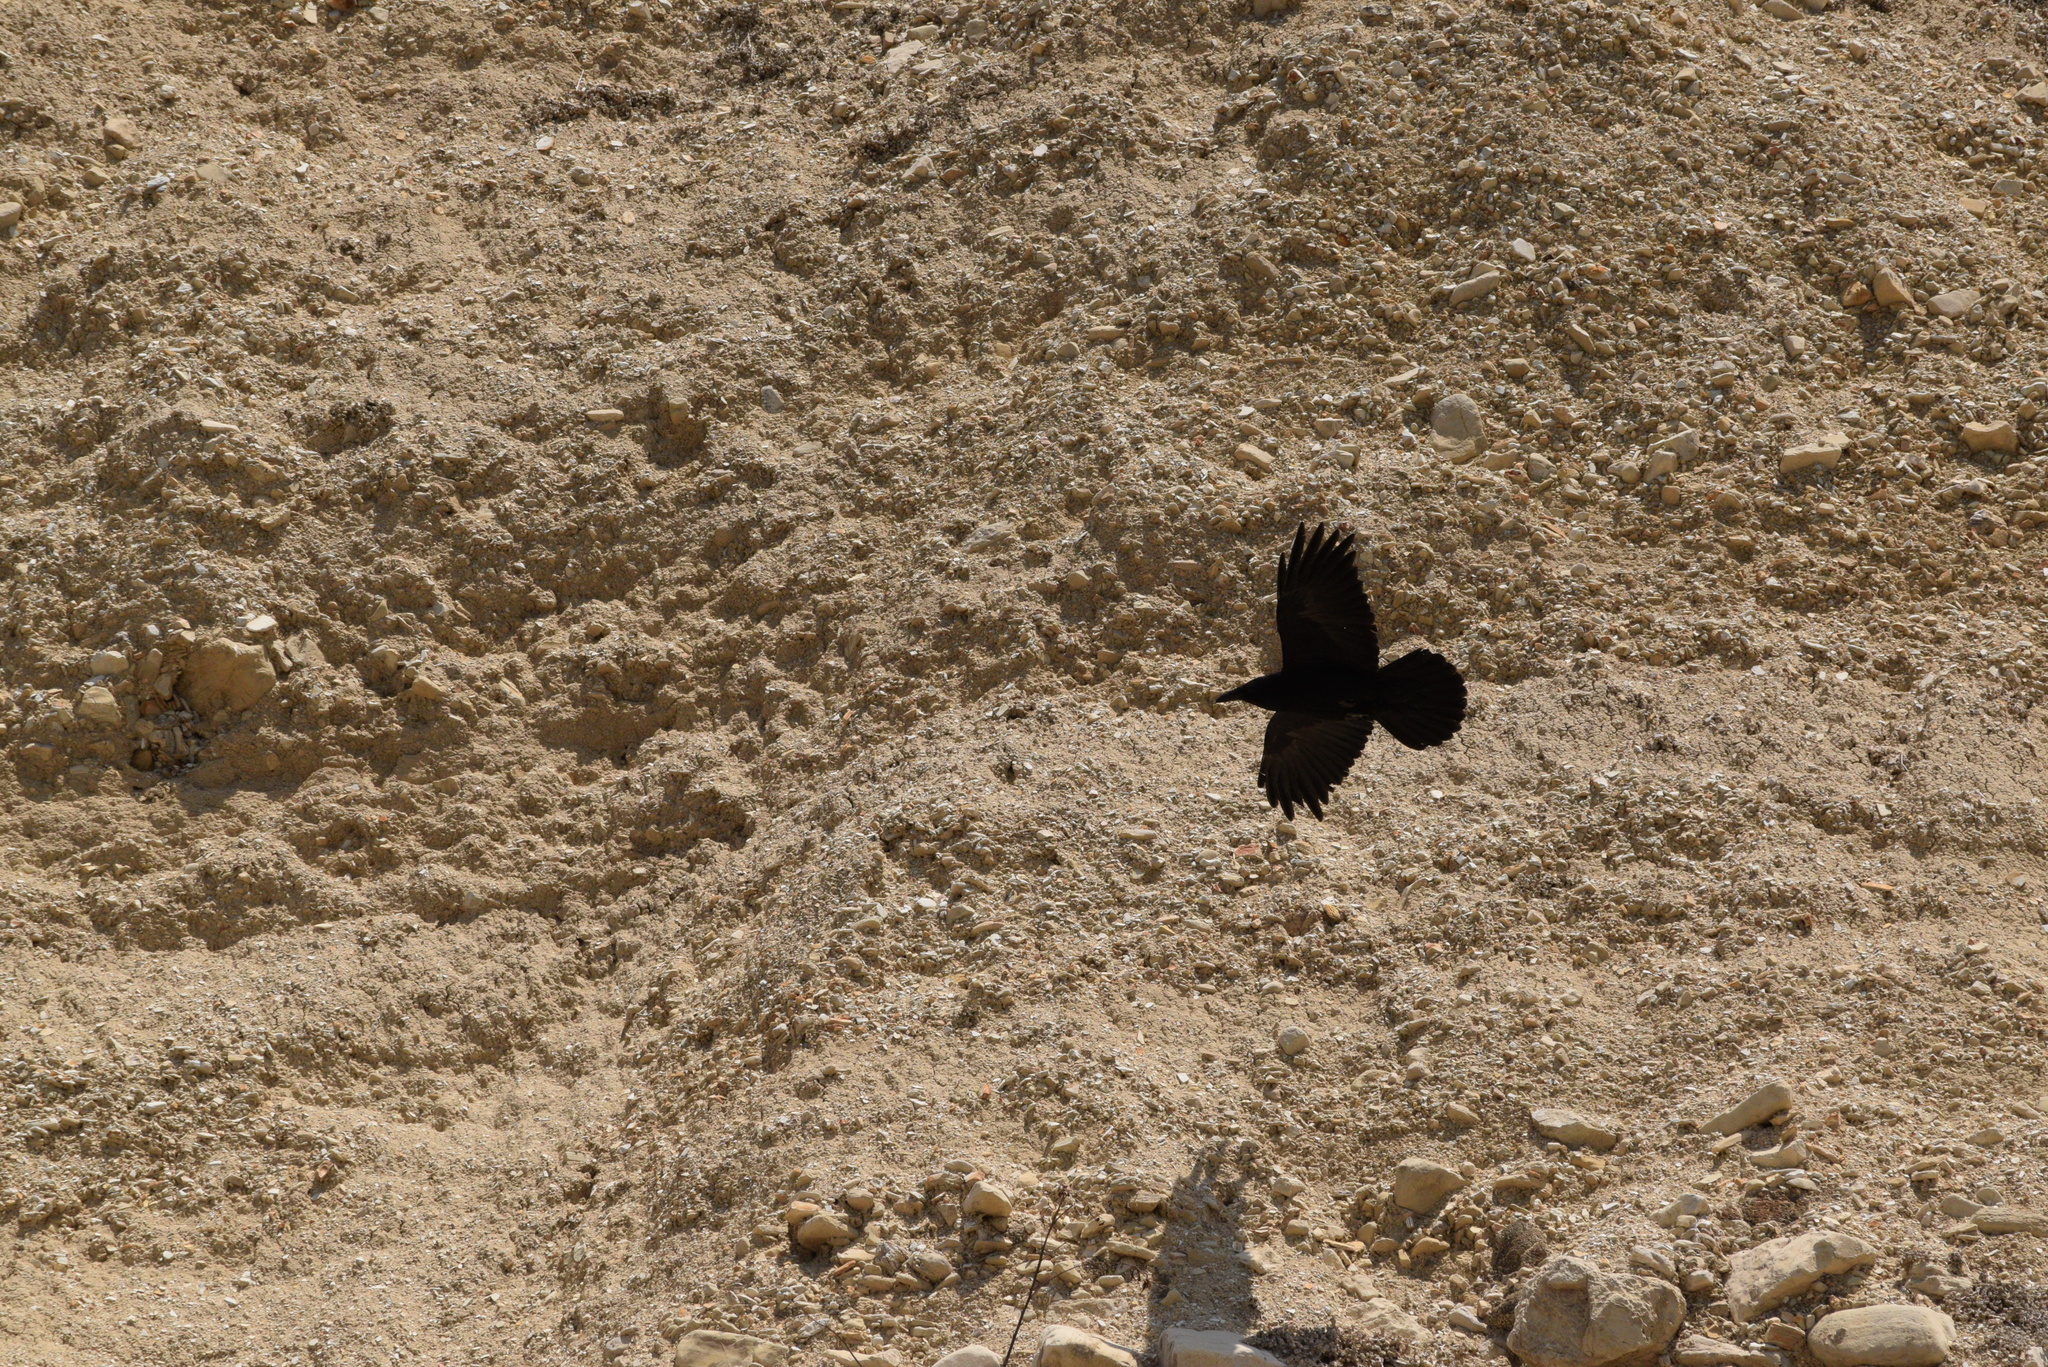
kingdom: Animalia
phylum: Chordata
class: Aves
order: Passeriformes
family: Corvidae
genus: Corvus
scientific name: Corvus corax
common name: Common raven
